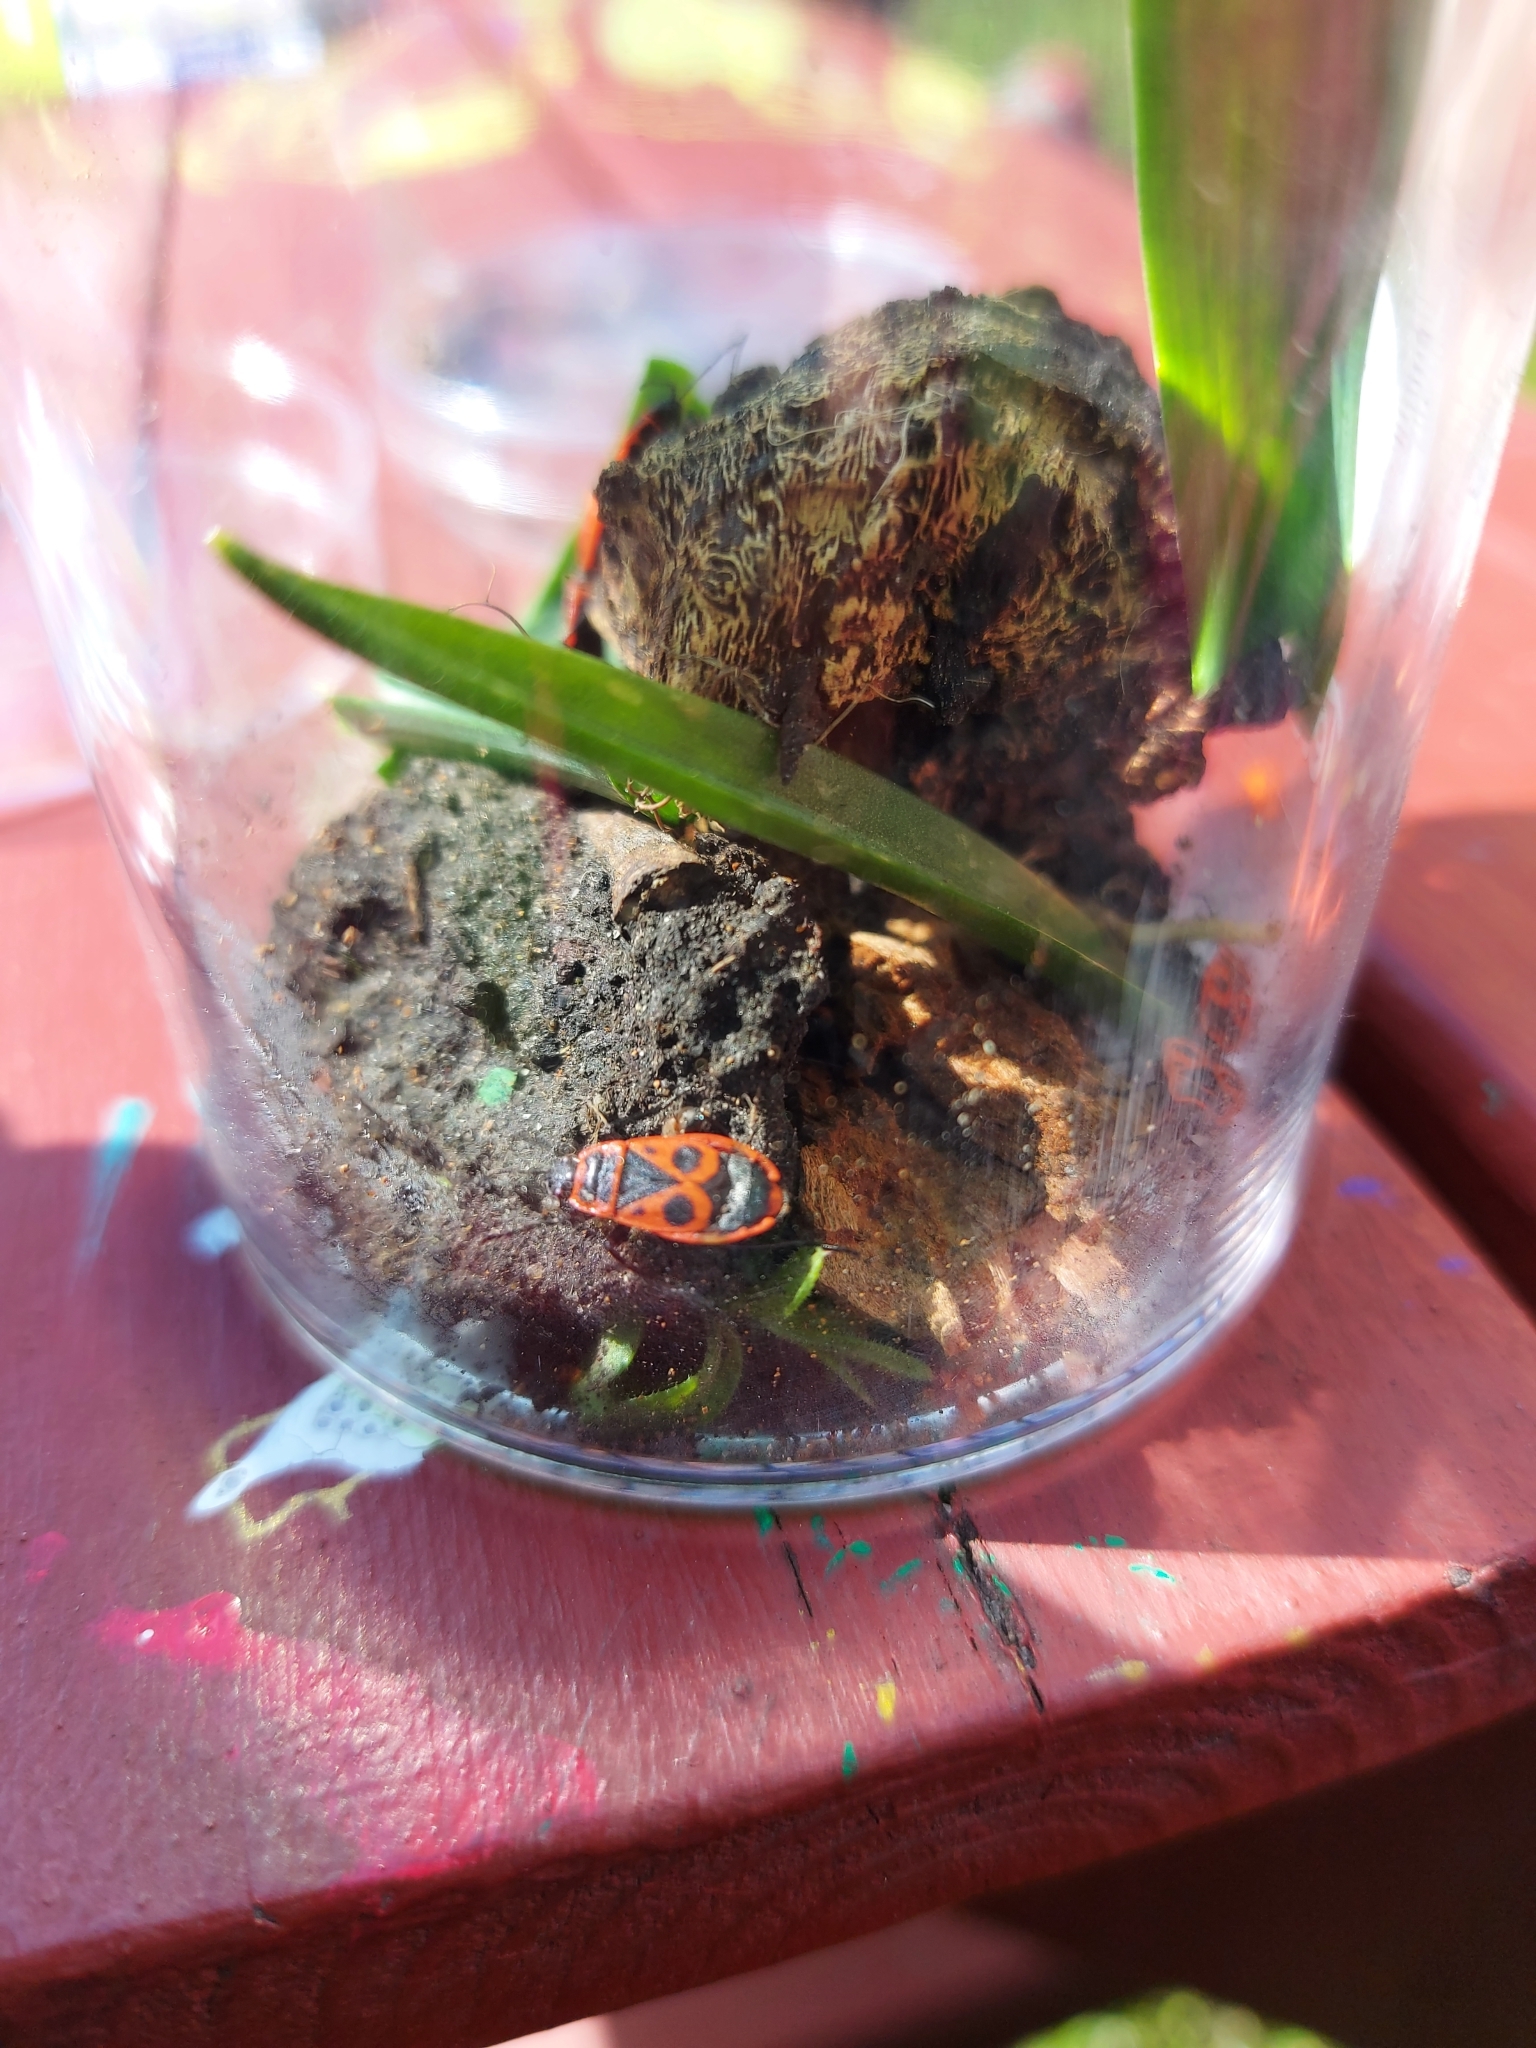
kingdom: Animalia
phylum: Arthropoda
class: Insecta
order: Hemiptera
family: Pyrrhocoridae
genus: Pyrrhocoris
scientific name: Pyrrhocoris apterus
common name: Firebug
